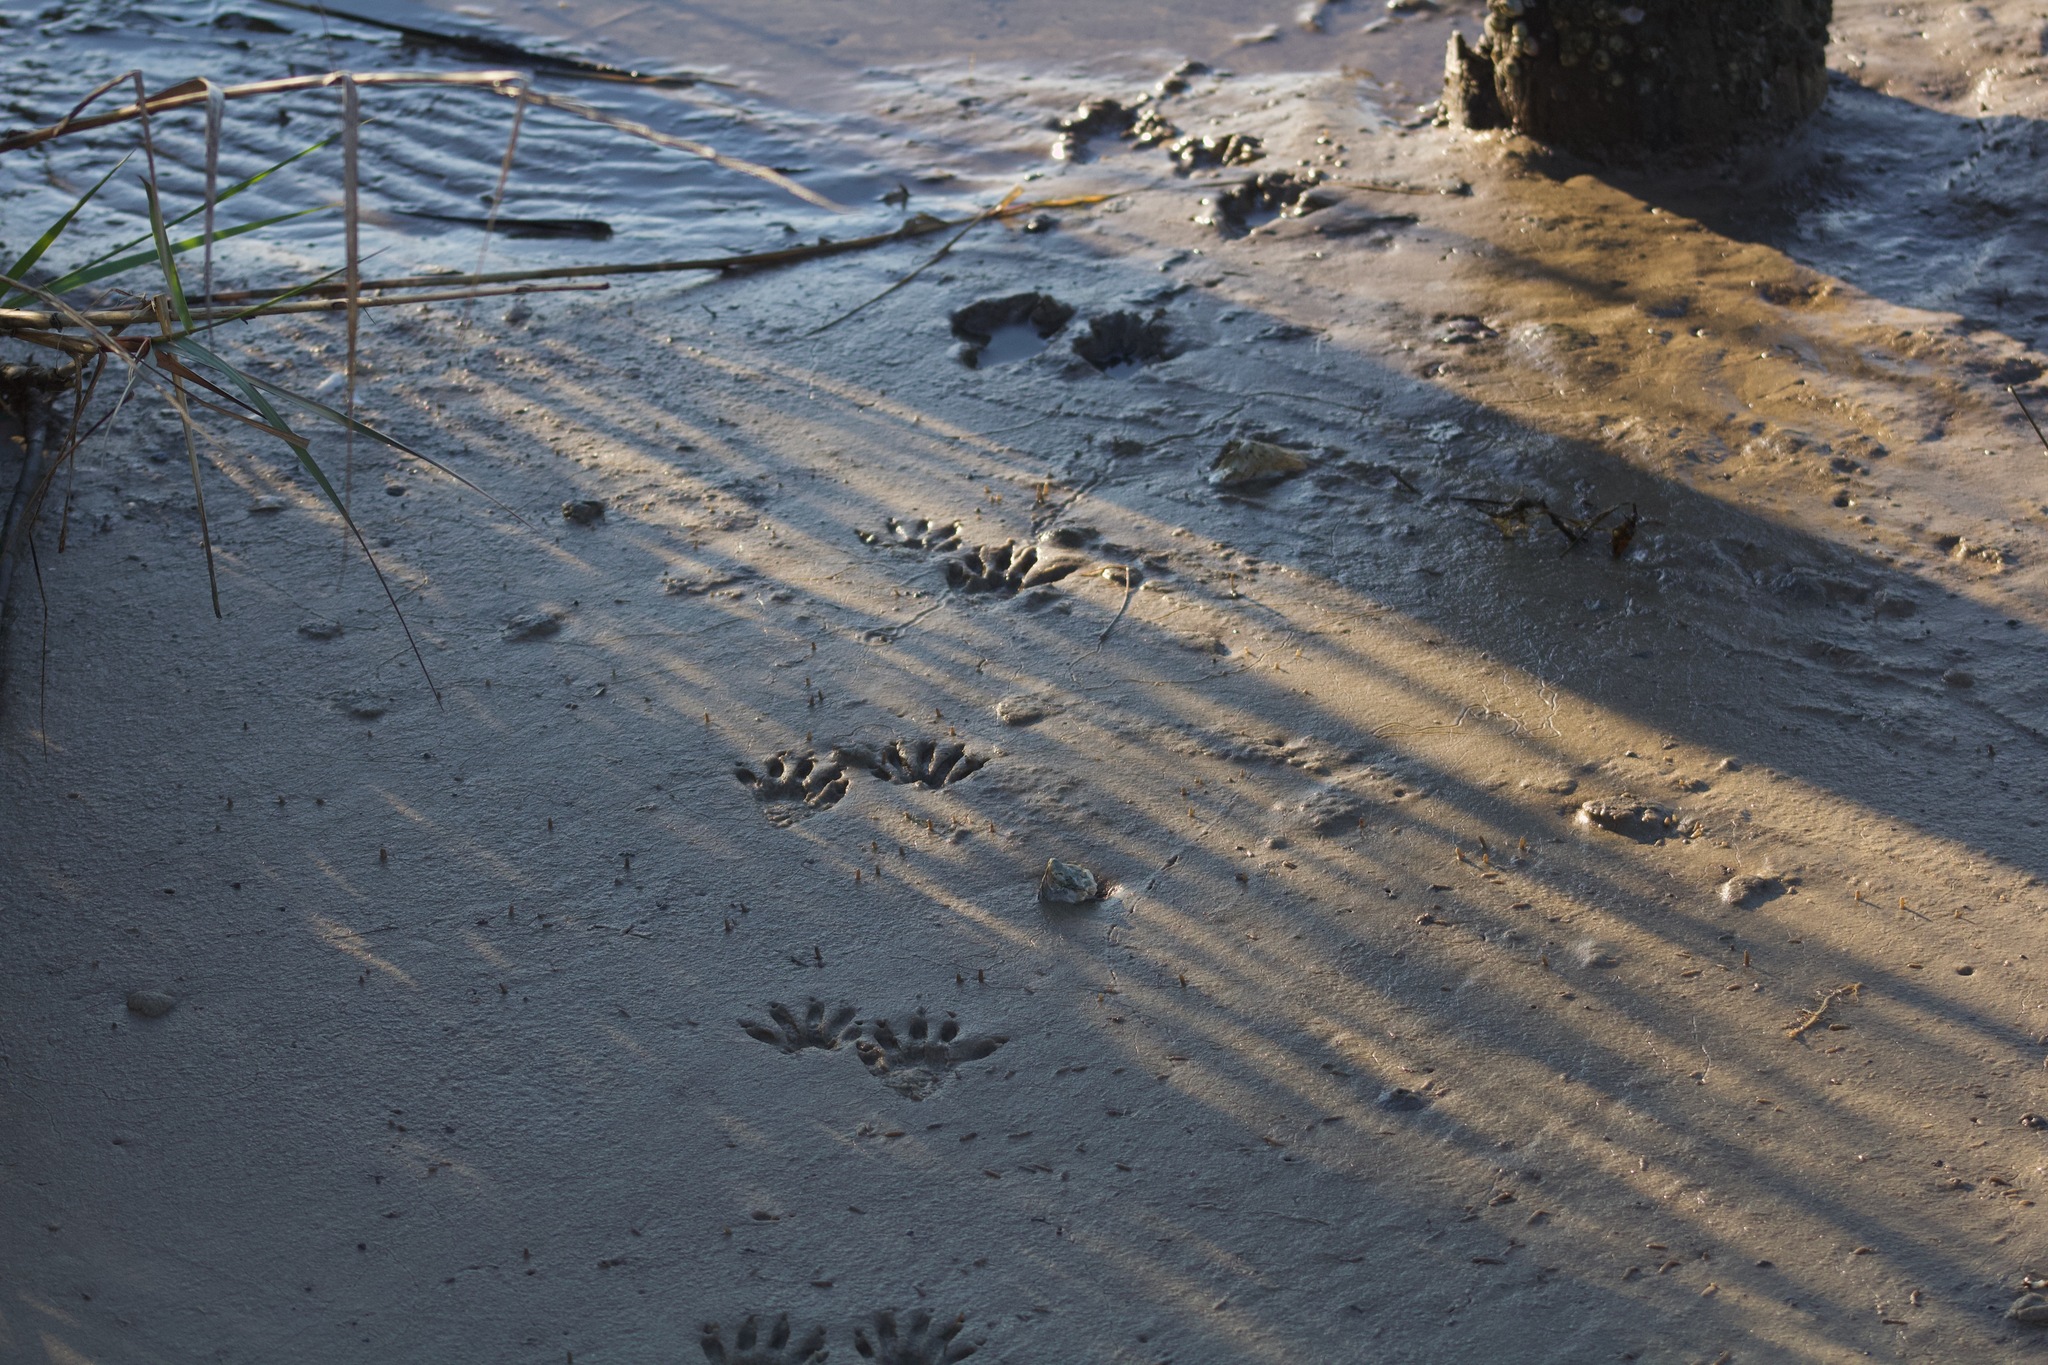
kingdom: Animalia
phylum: Chordata
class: Mammalia
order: Carnivora
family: Procyonidae
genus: Procyon
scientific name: Procyon lotor
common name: Raccoon
